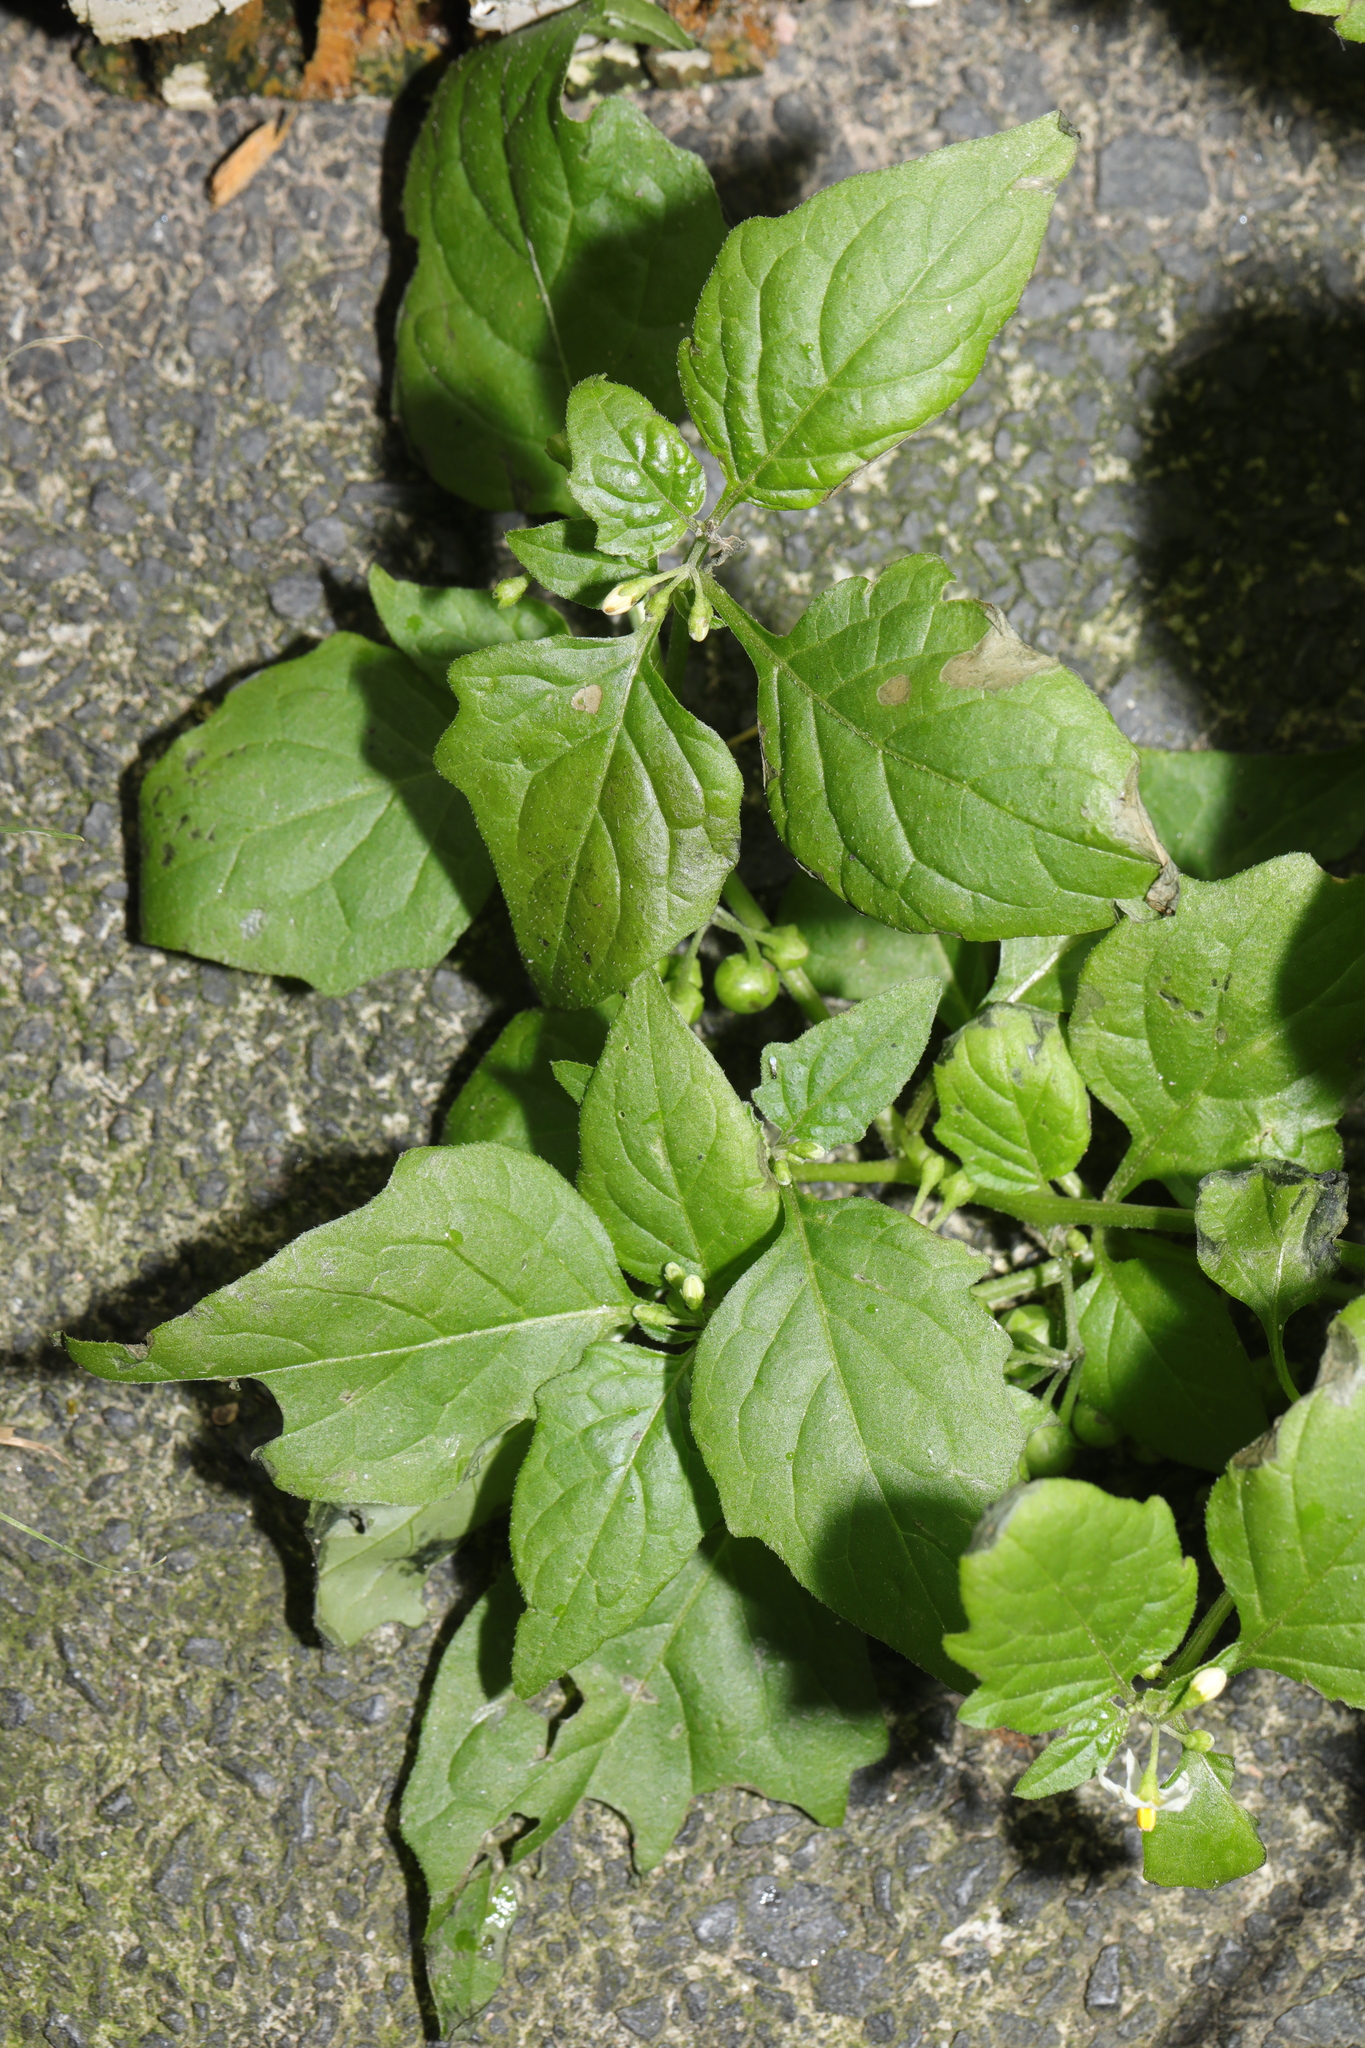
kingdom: Plantae
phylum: Tracheophyta
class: Magnoliopsida
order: Solanales
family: Solanaceae
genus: Solanum
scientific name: Solanum nigrum
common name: Black nightshade
